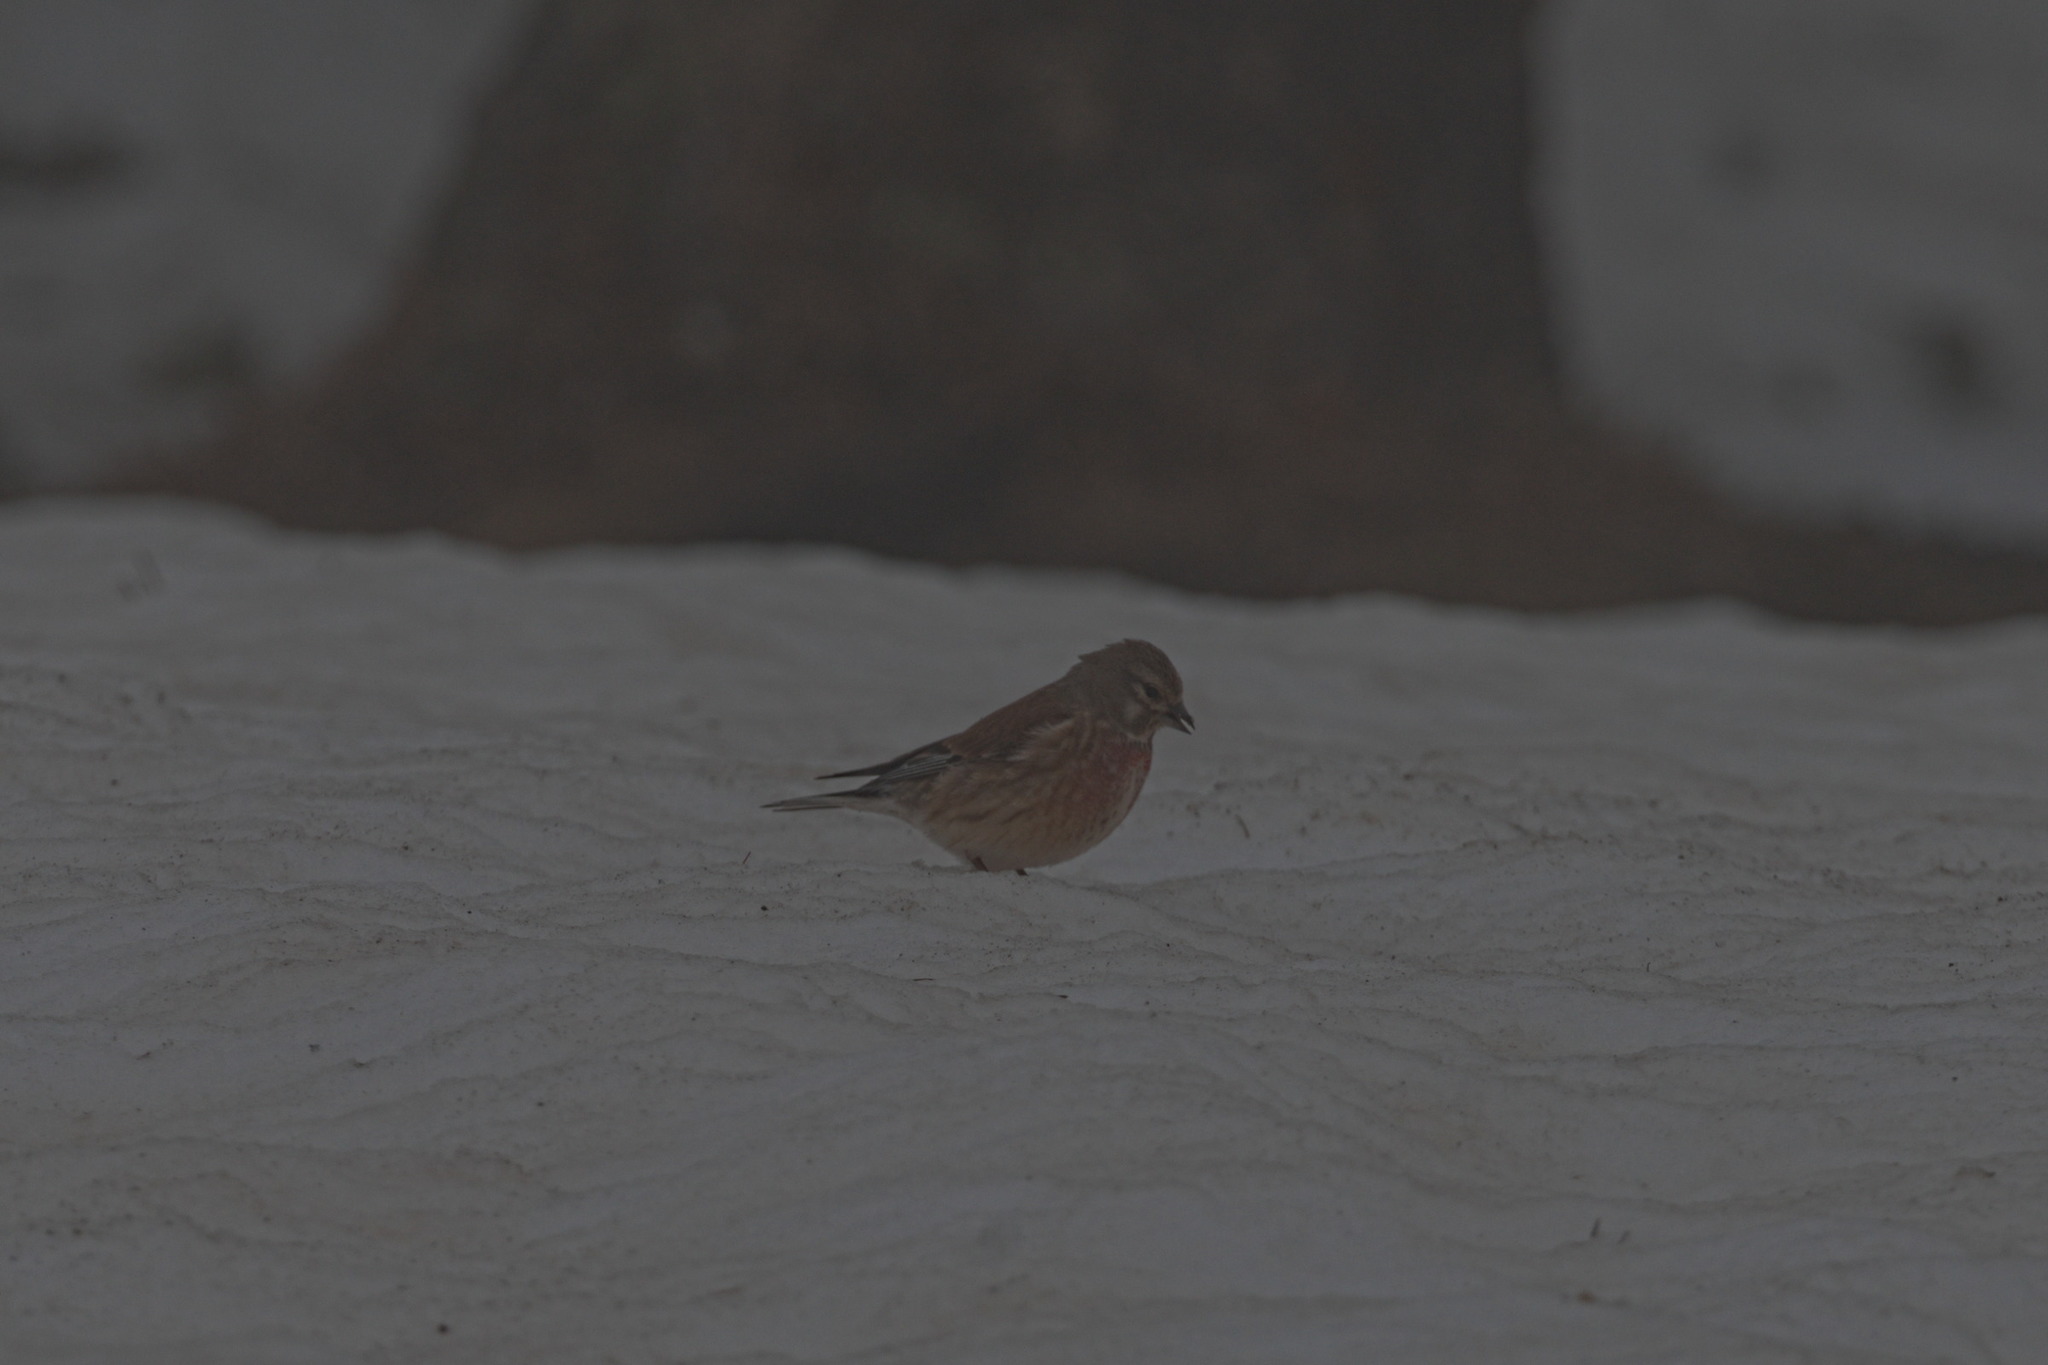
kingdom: Animalia
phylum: Chordata
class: Aves
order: Passeriformes
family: Fringillidae
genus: Linaria
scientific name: Linaria cannabina
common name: Common linnet
